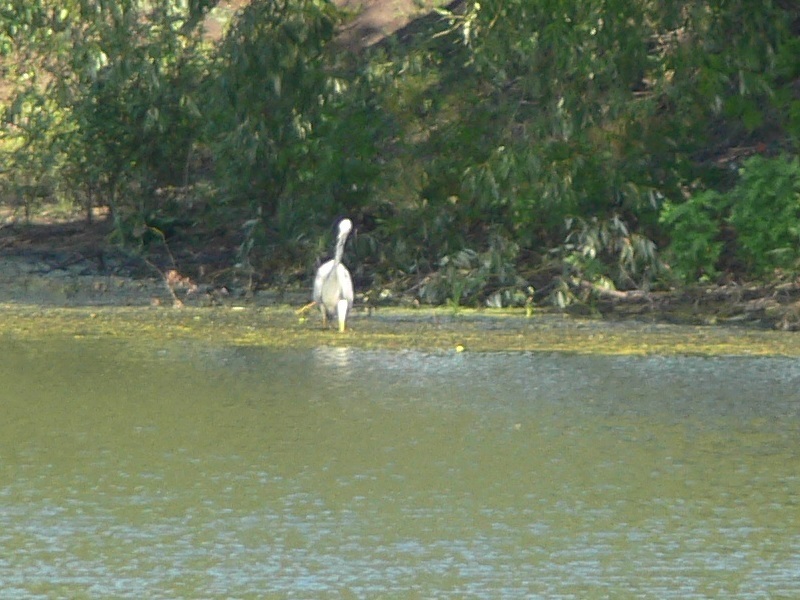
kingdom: Animalia
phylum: Chordata
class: Aves
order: Pelecaniformes
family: Ardeidae
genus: Ardea
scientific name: Ardea cinerea
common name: Grey heron
